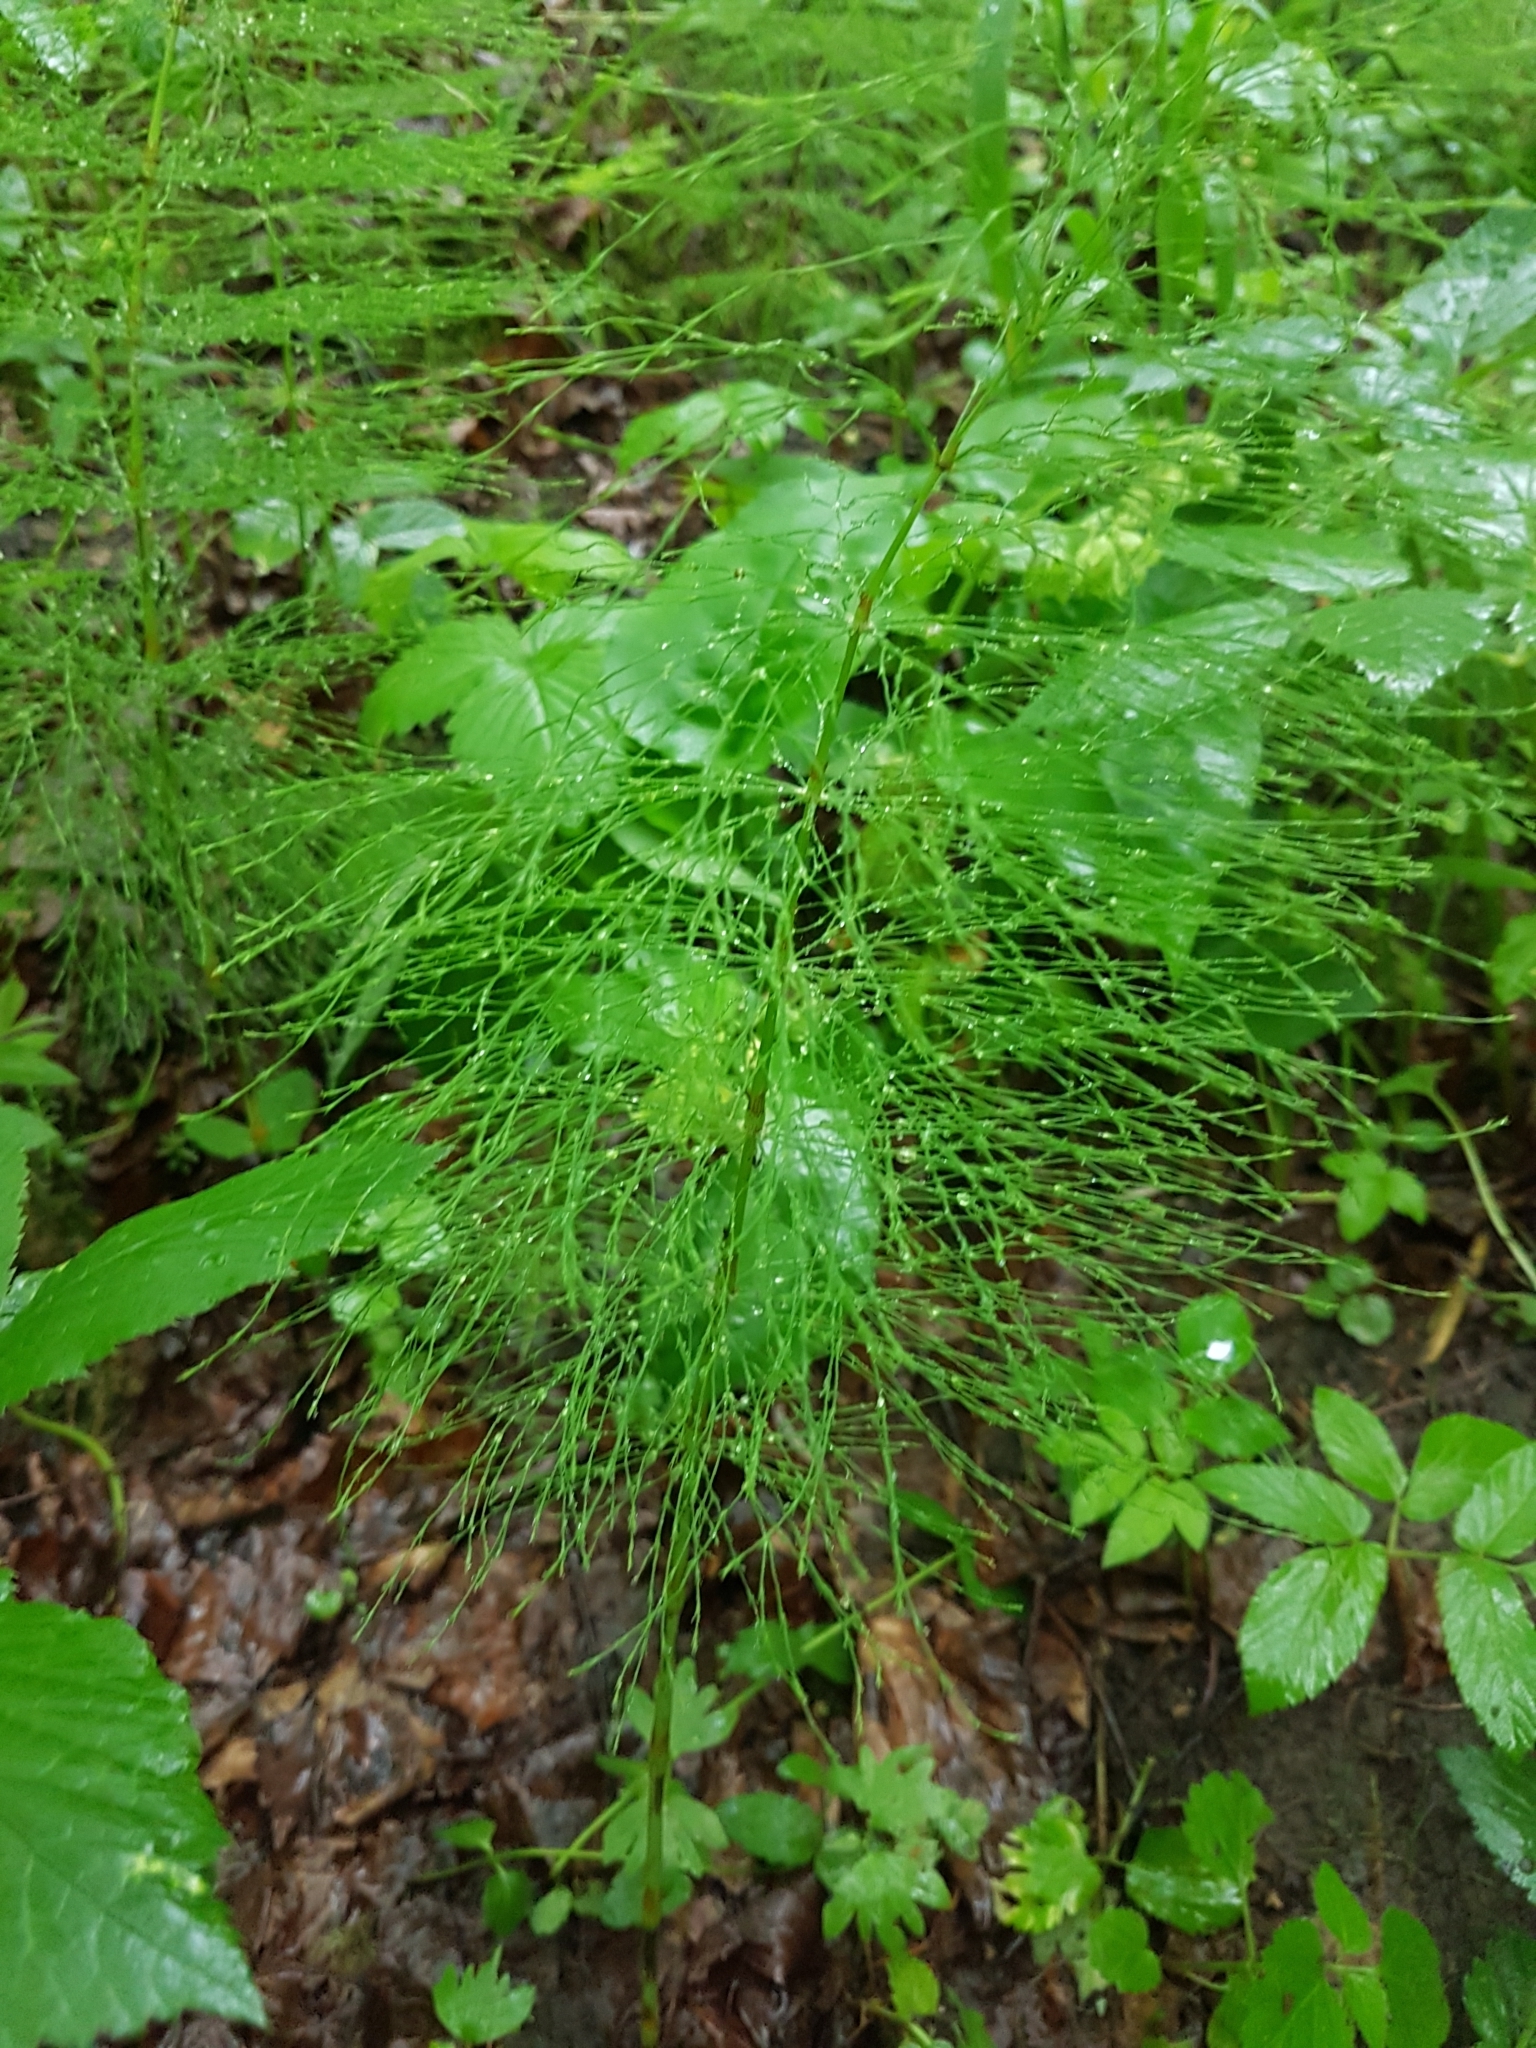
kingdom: Plantae
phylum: Tracheophyta
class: Polypodiopsida
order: Equisetales
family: Equisetaceae
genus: Equisetum
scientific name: Equisetum sylvaticum
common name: Wood horsetail
